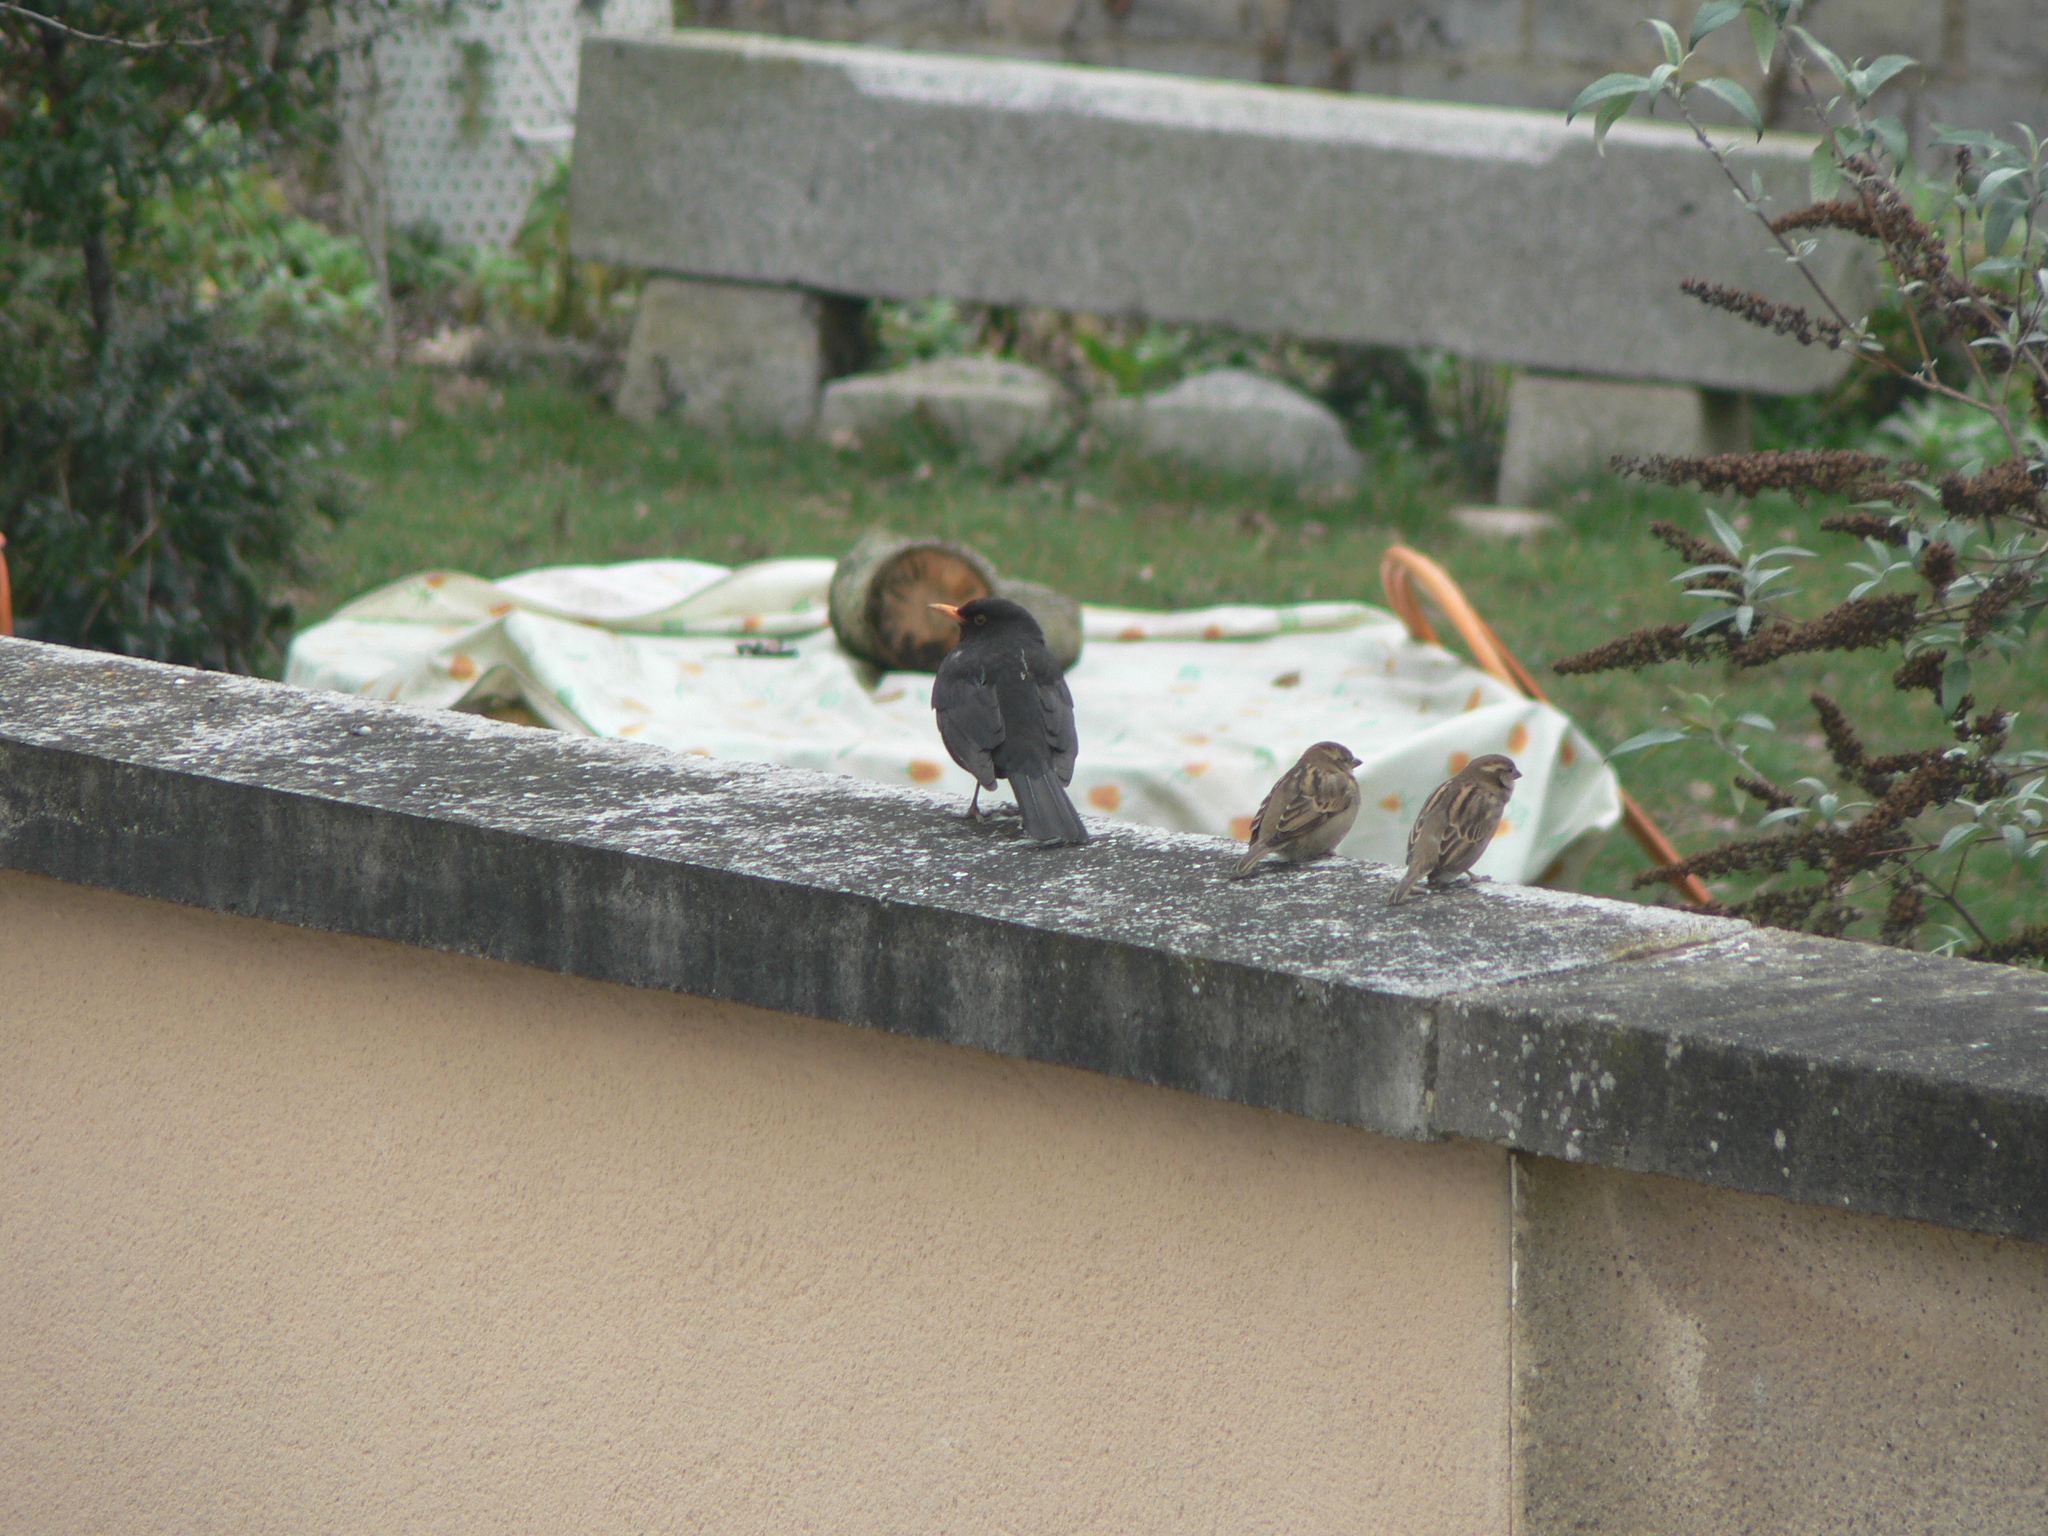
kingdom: Animalia
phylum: Chordata
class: Aves
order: Passeriformes
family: Turdidae
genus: Turdus
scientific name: Turdus merula
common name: Common blackbird
